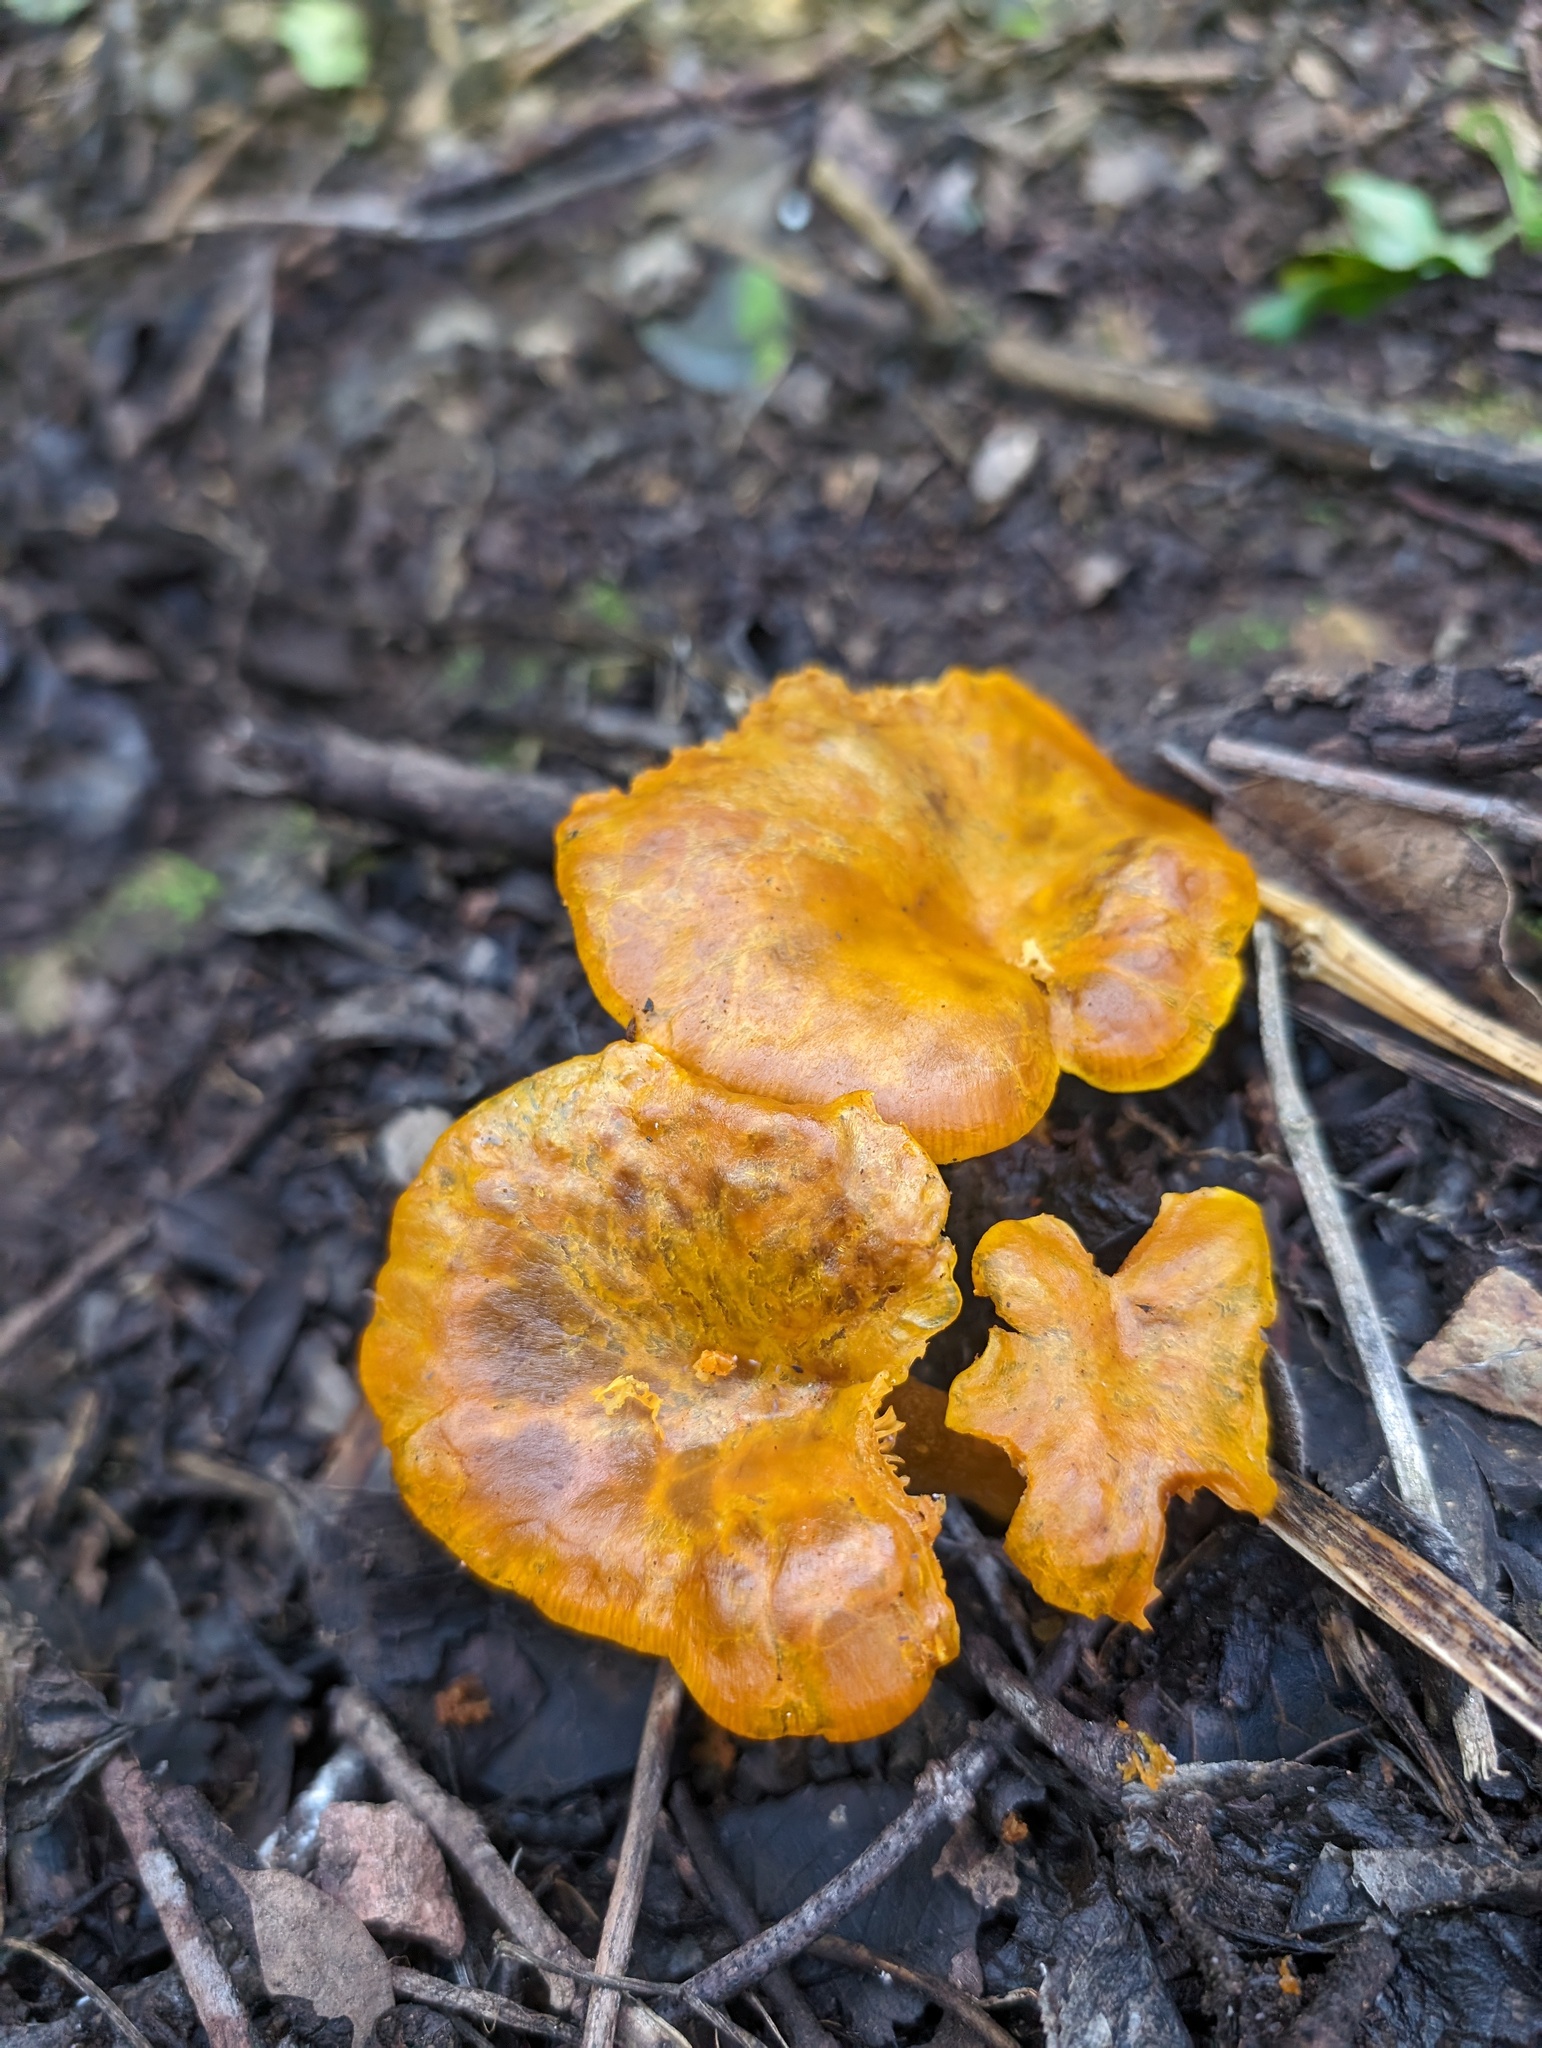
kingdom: Fungi
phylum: Basidiomycota
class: Agaricomycetes
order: Agaricales
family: Omphalotaceae
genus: Omphalotus
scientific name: Omphalotus olivascens
